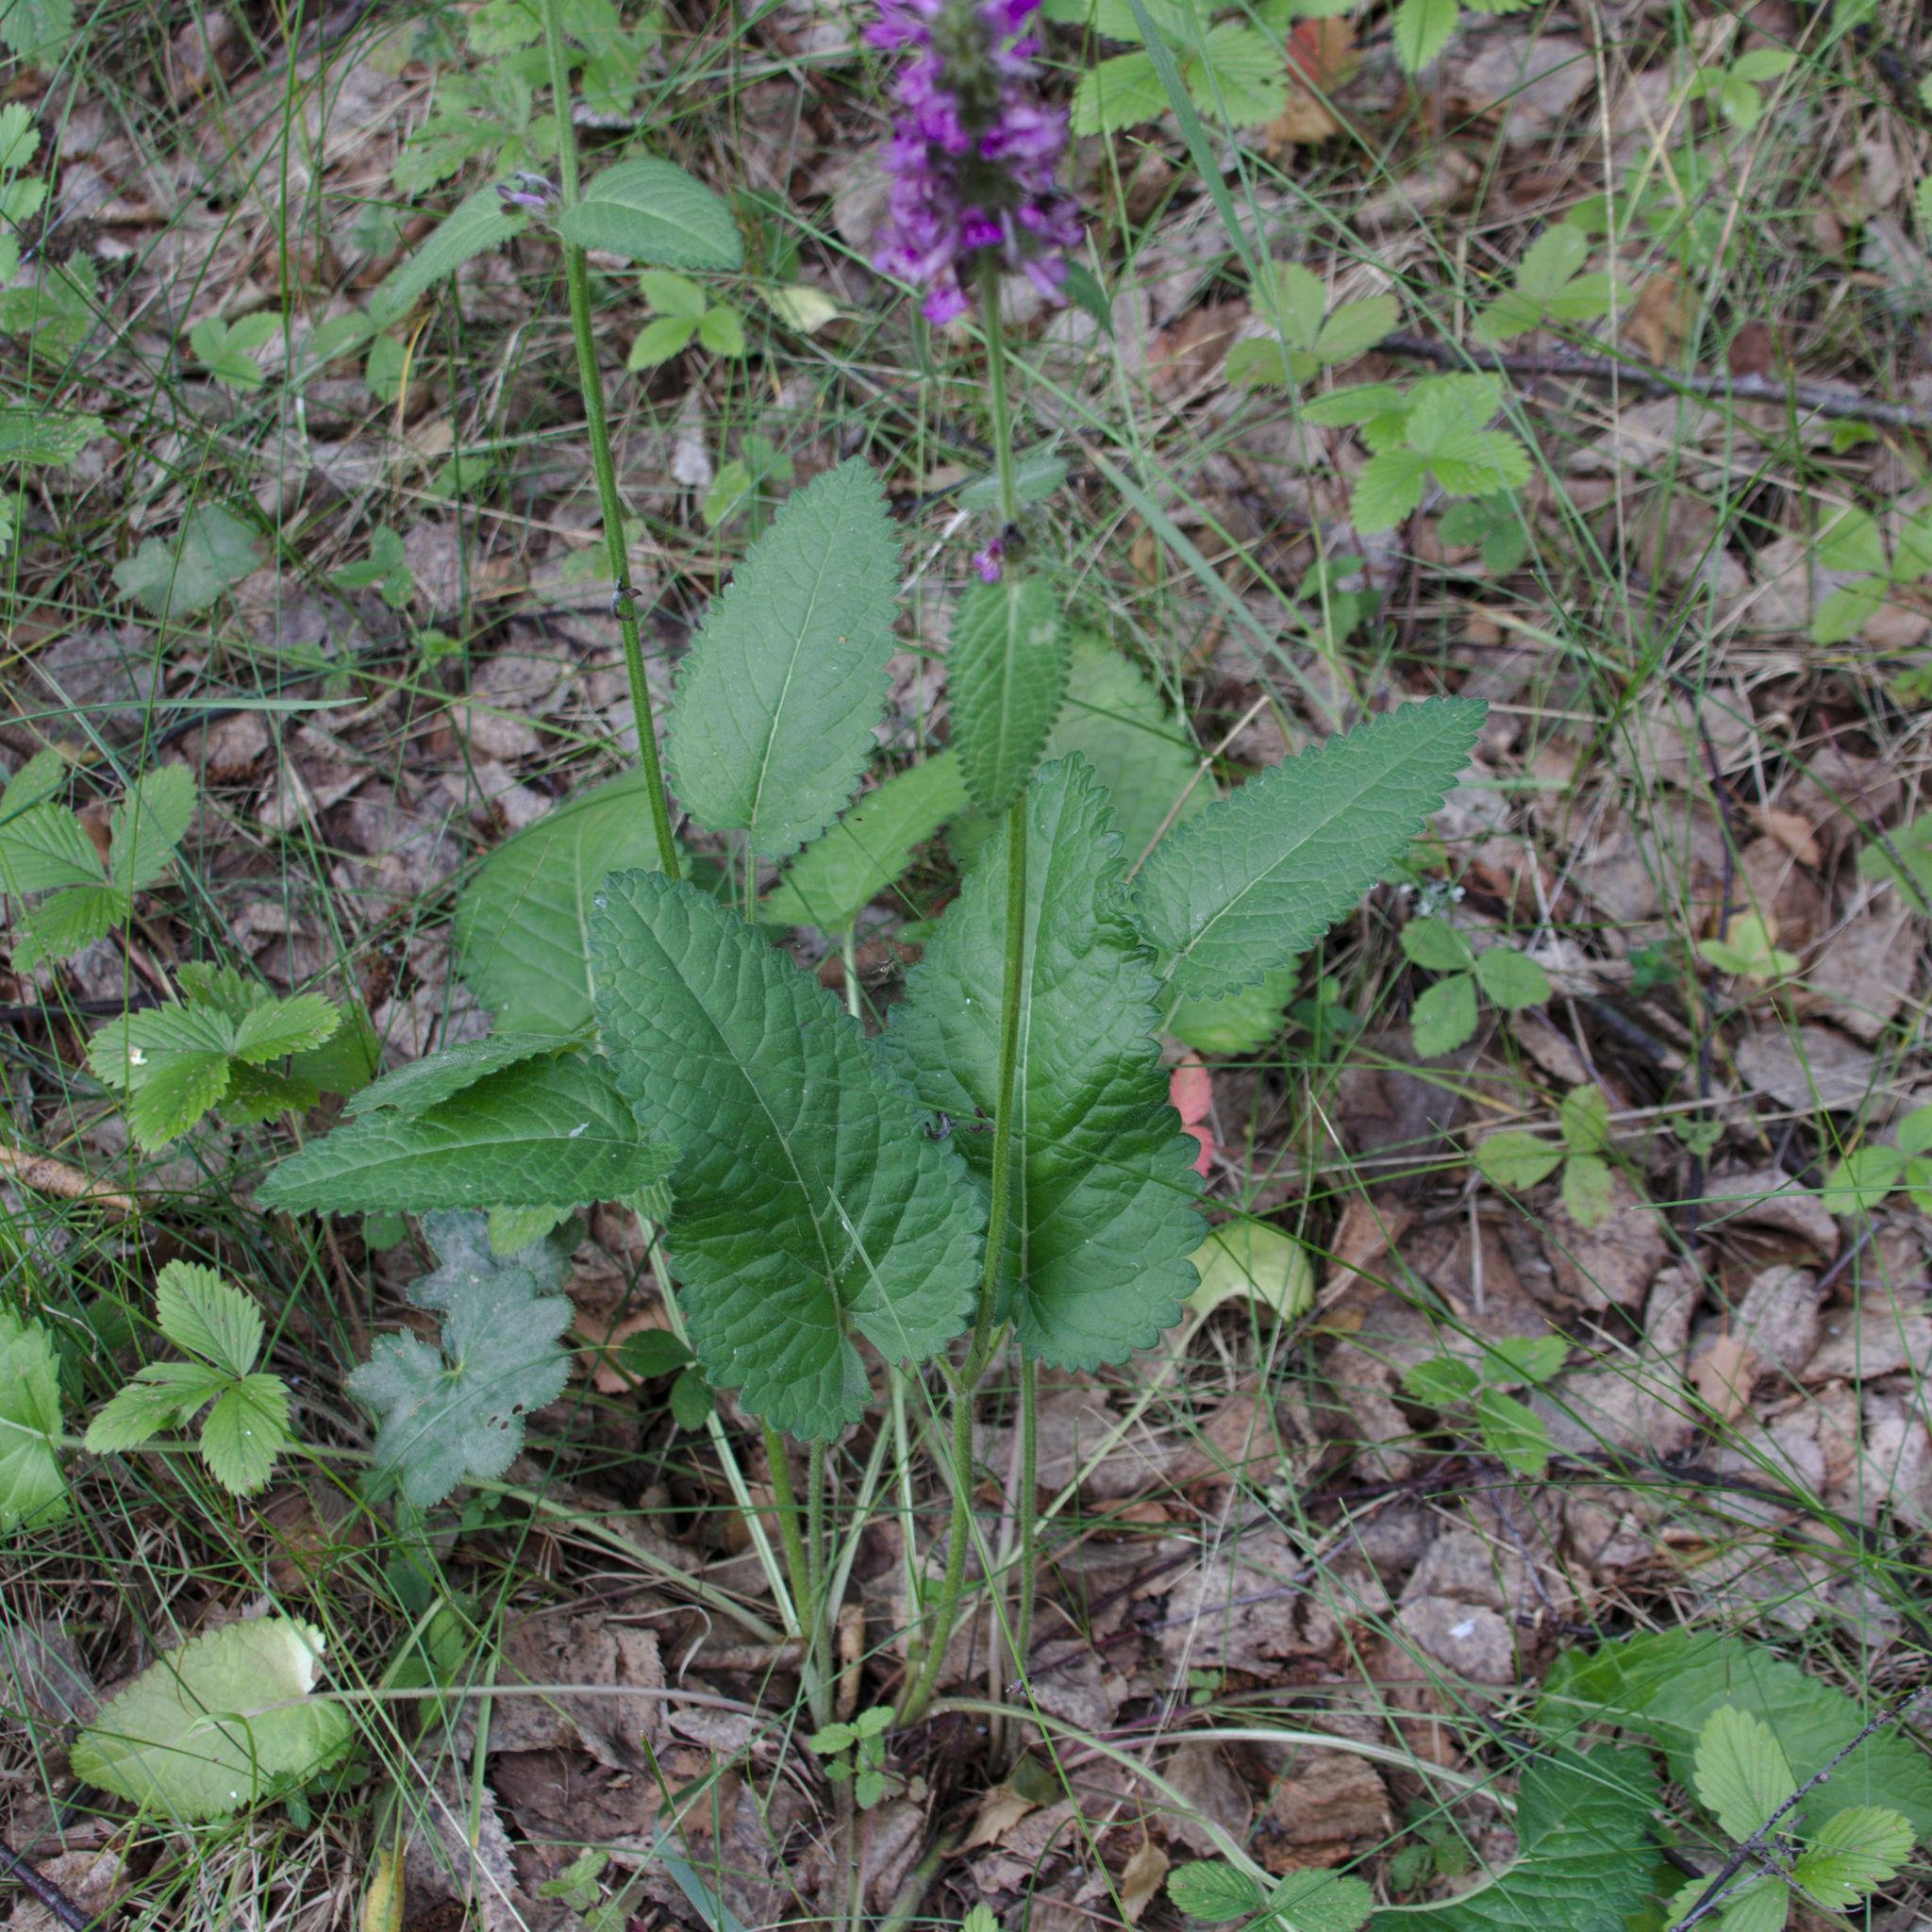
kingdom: Plantae
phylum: Tracheophyta
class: Magnoliopsida
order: Lamiales
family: Lamiaceae
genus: Betonica
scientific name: Betonica officinalis
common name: Bishop's-wort
